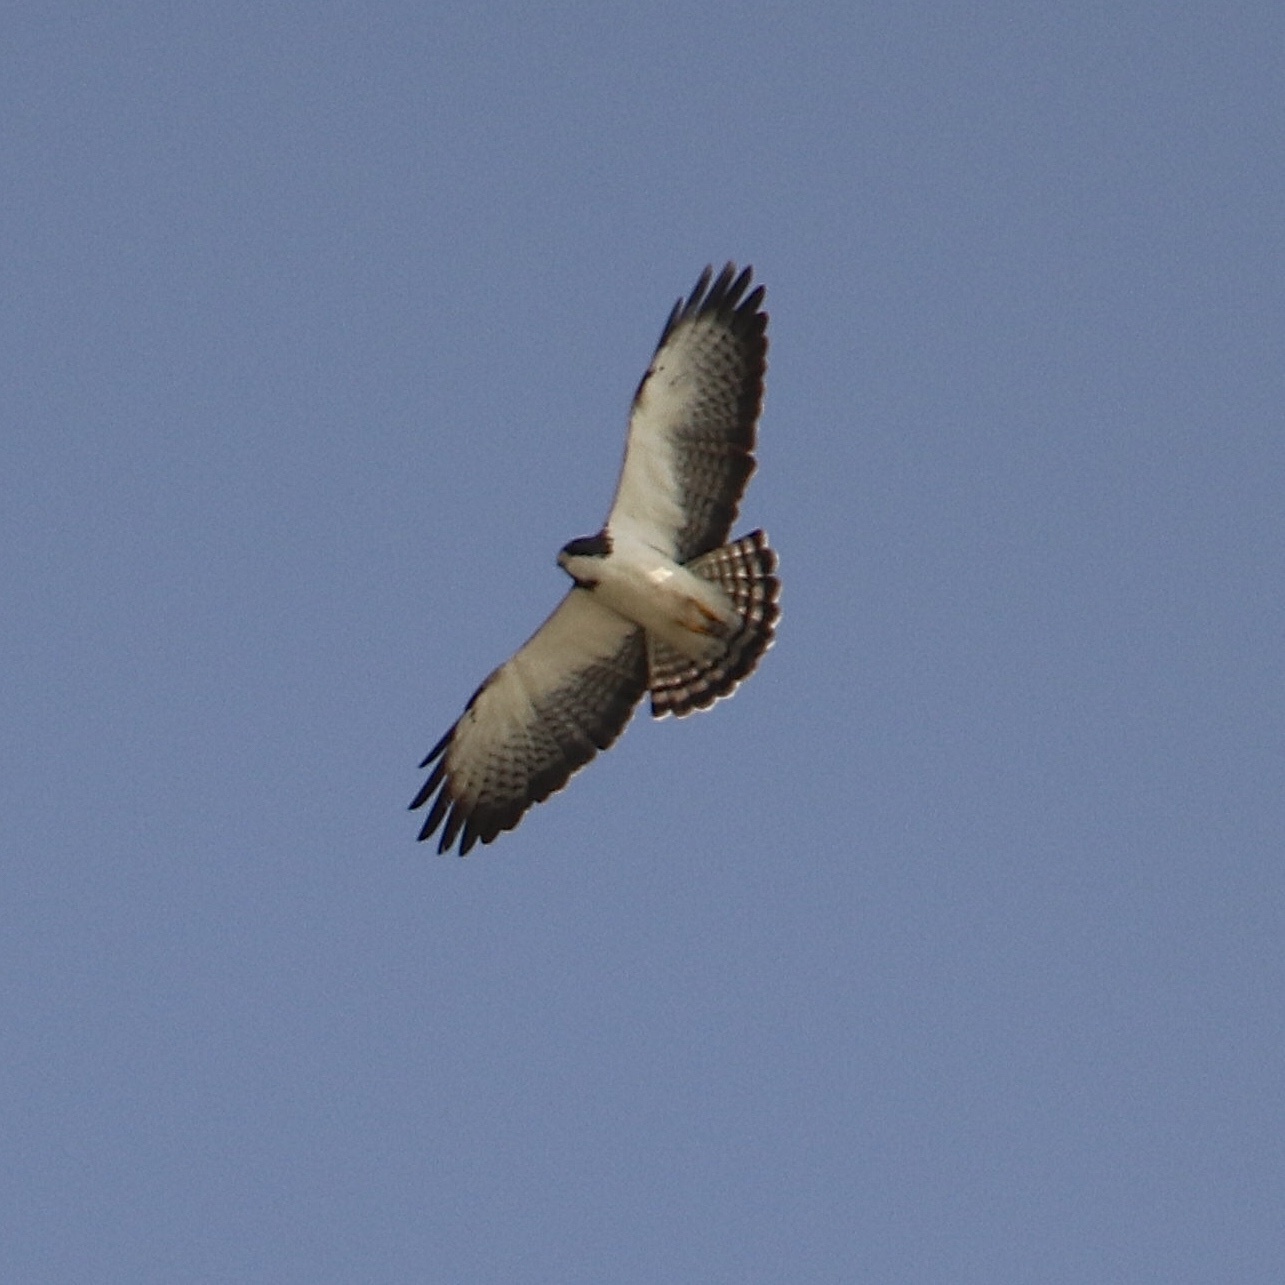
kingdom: Animalia
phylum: Chordata
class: Aves
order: Accipitriformes
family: Accipitridae
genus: Buteo
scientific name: Buteo brachyurus
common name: Short-tailed hawk
